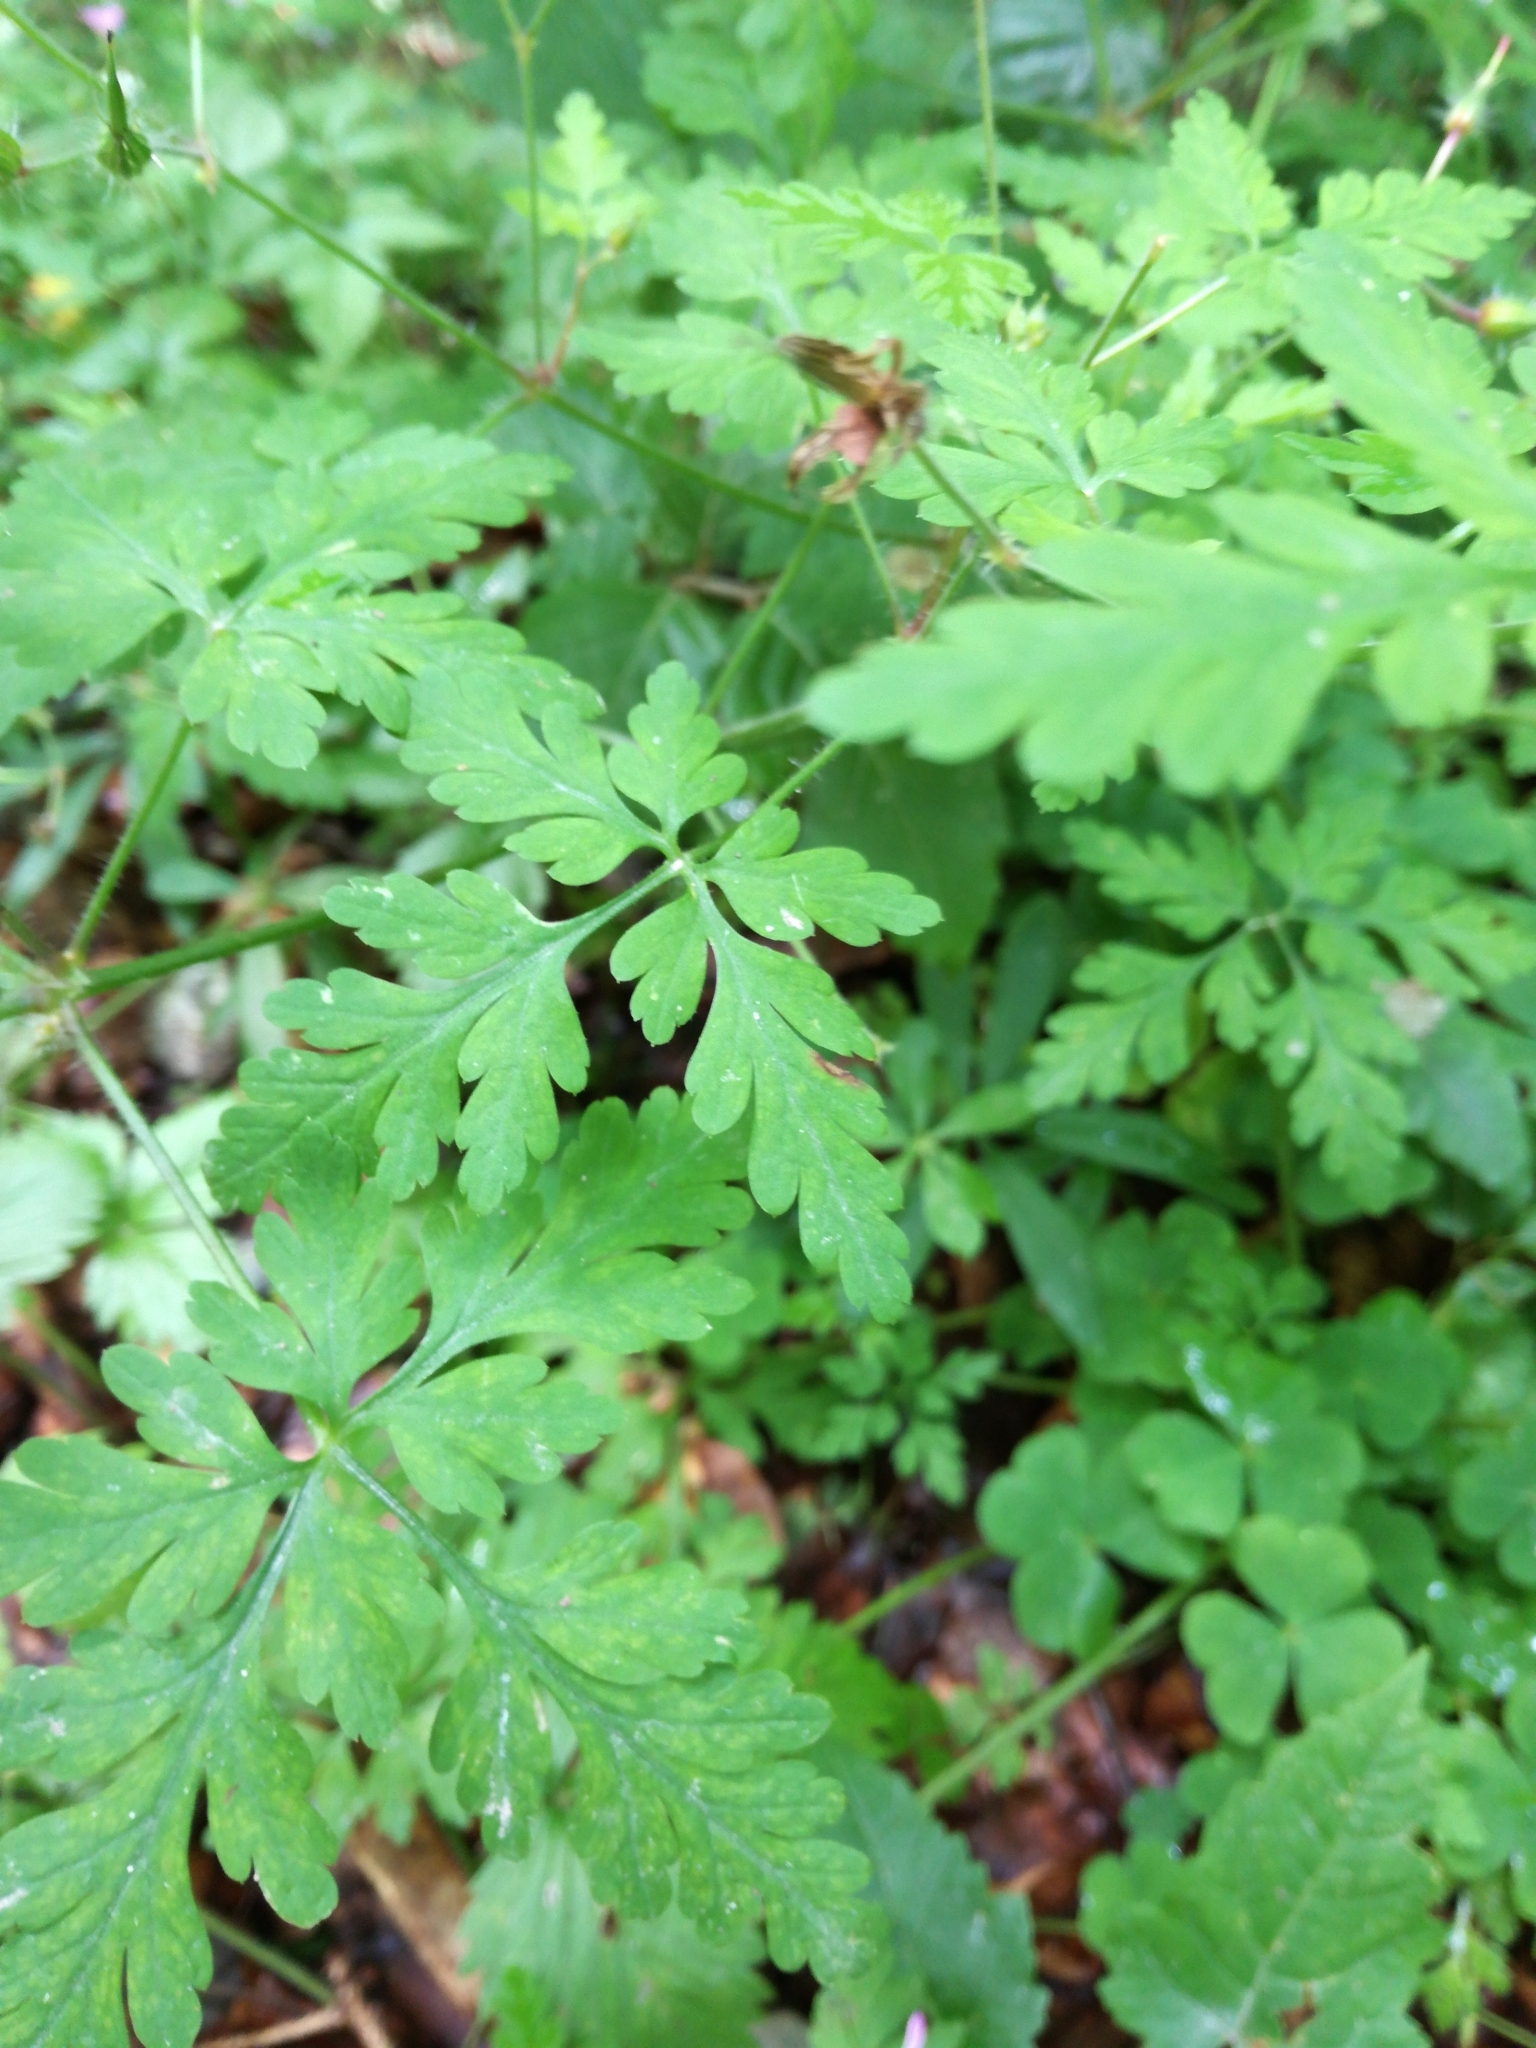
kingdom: Plantae
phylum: Tracheophyta
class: Magnoliopsida
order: Geraniales
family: Geraniaceae
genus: Geranium
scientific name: Geranium robertianum
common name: Herb-robert
